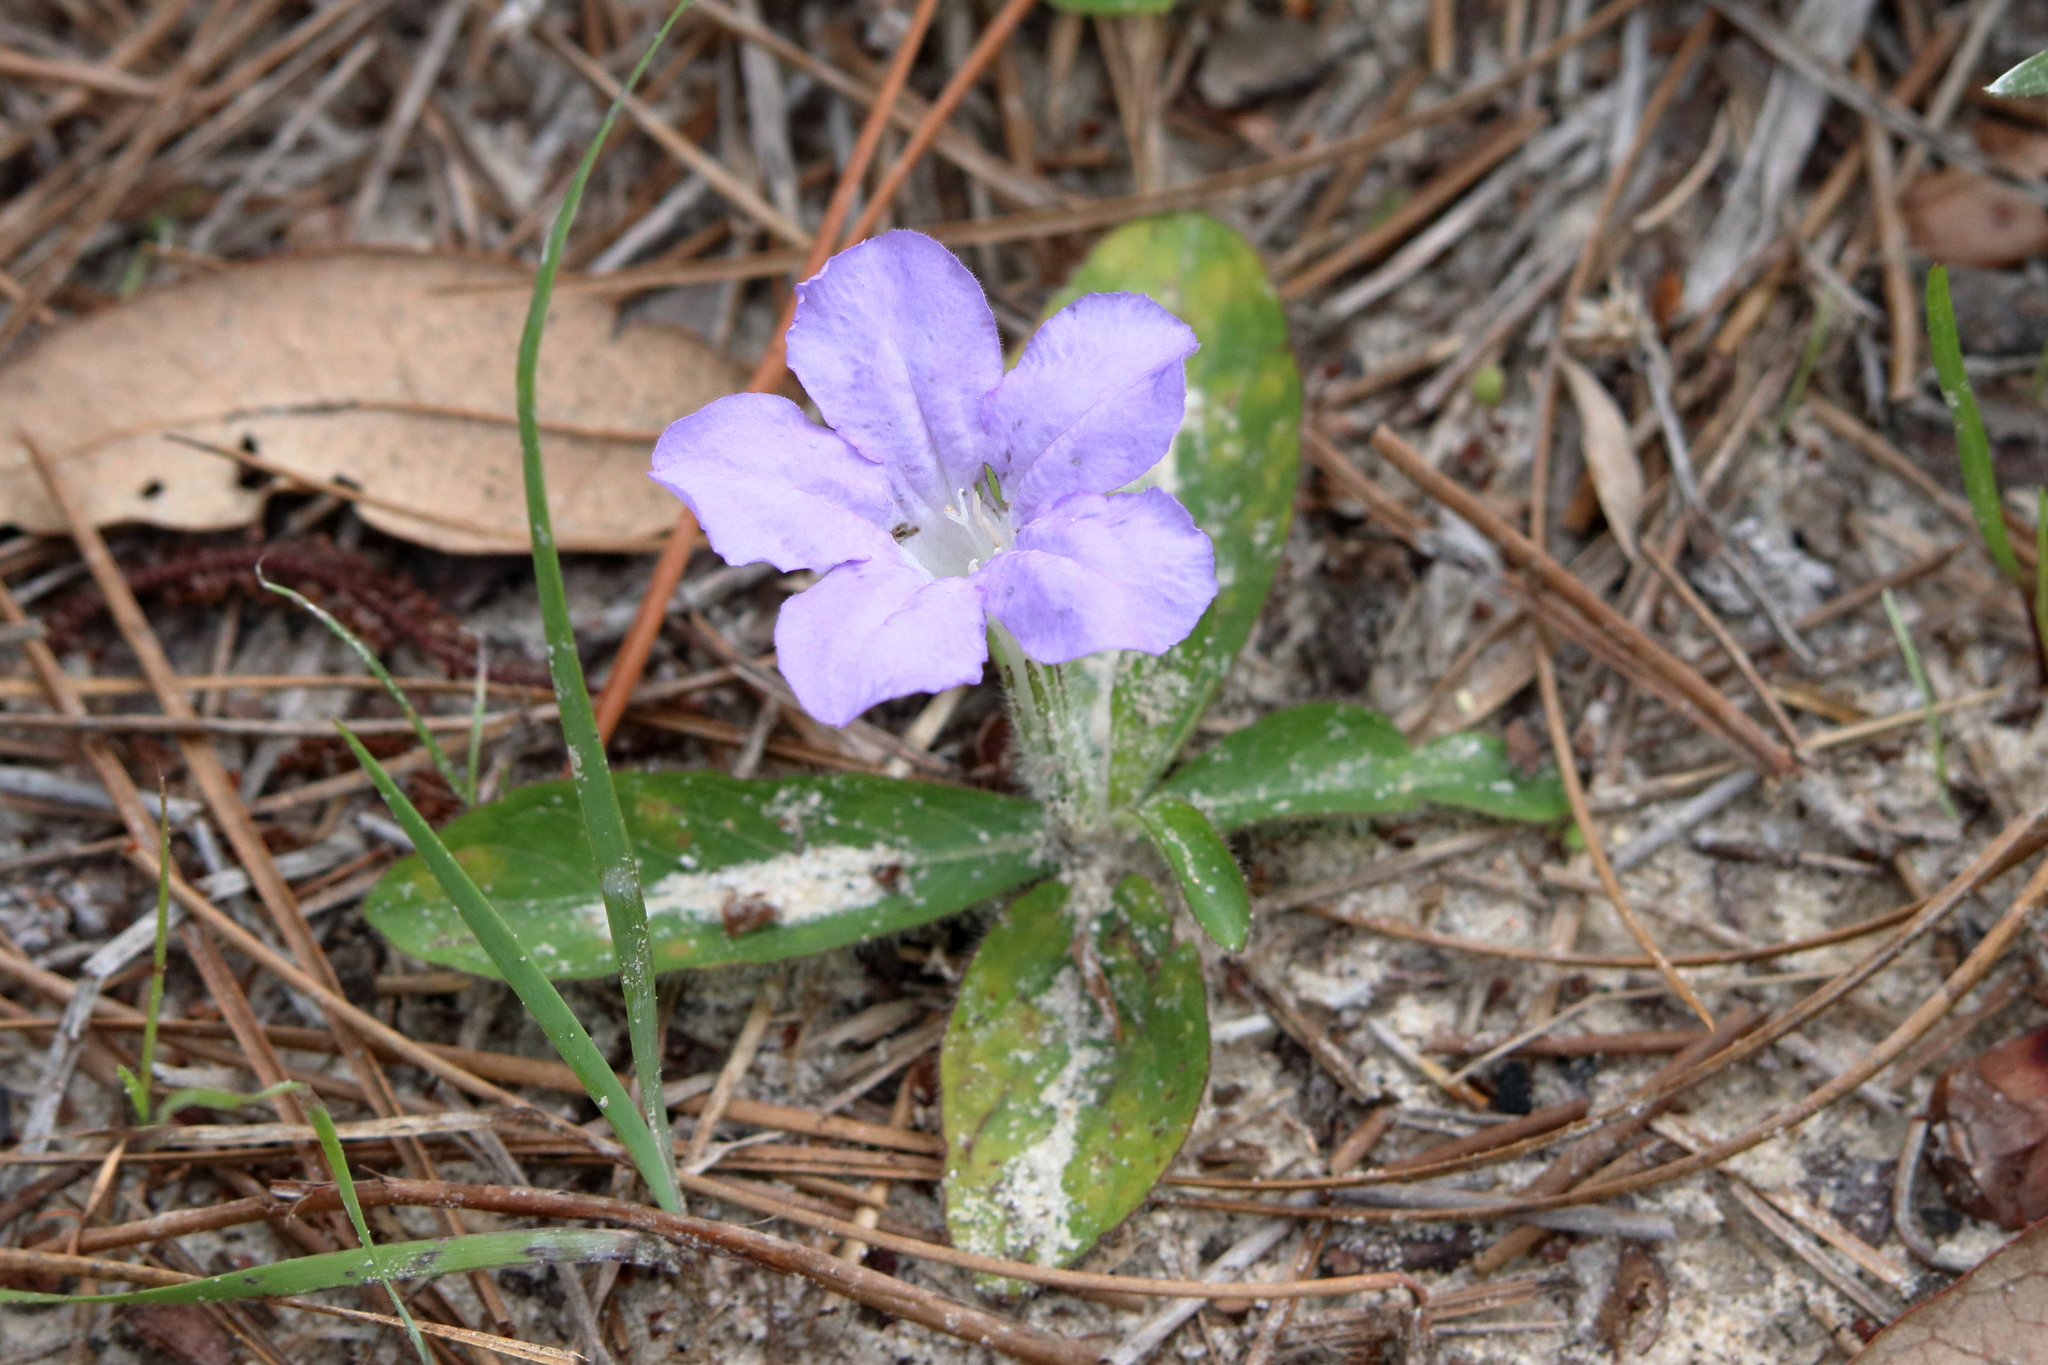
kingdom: Plantae
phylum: Tracheophyta
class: Magnoliopsida
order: Lamiales
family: Acanthaceae
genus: Ruellia
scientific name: Ruellia caroliniensis
